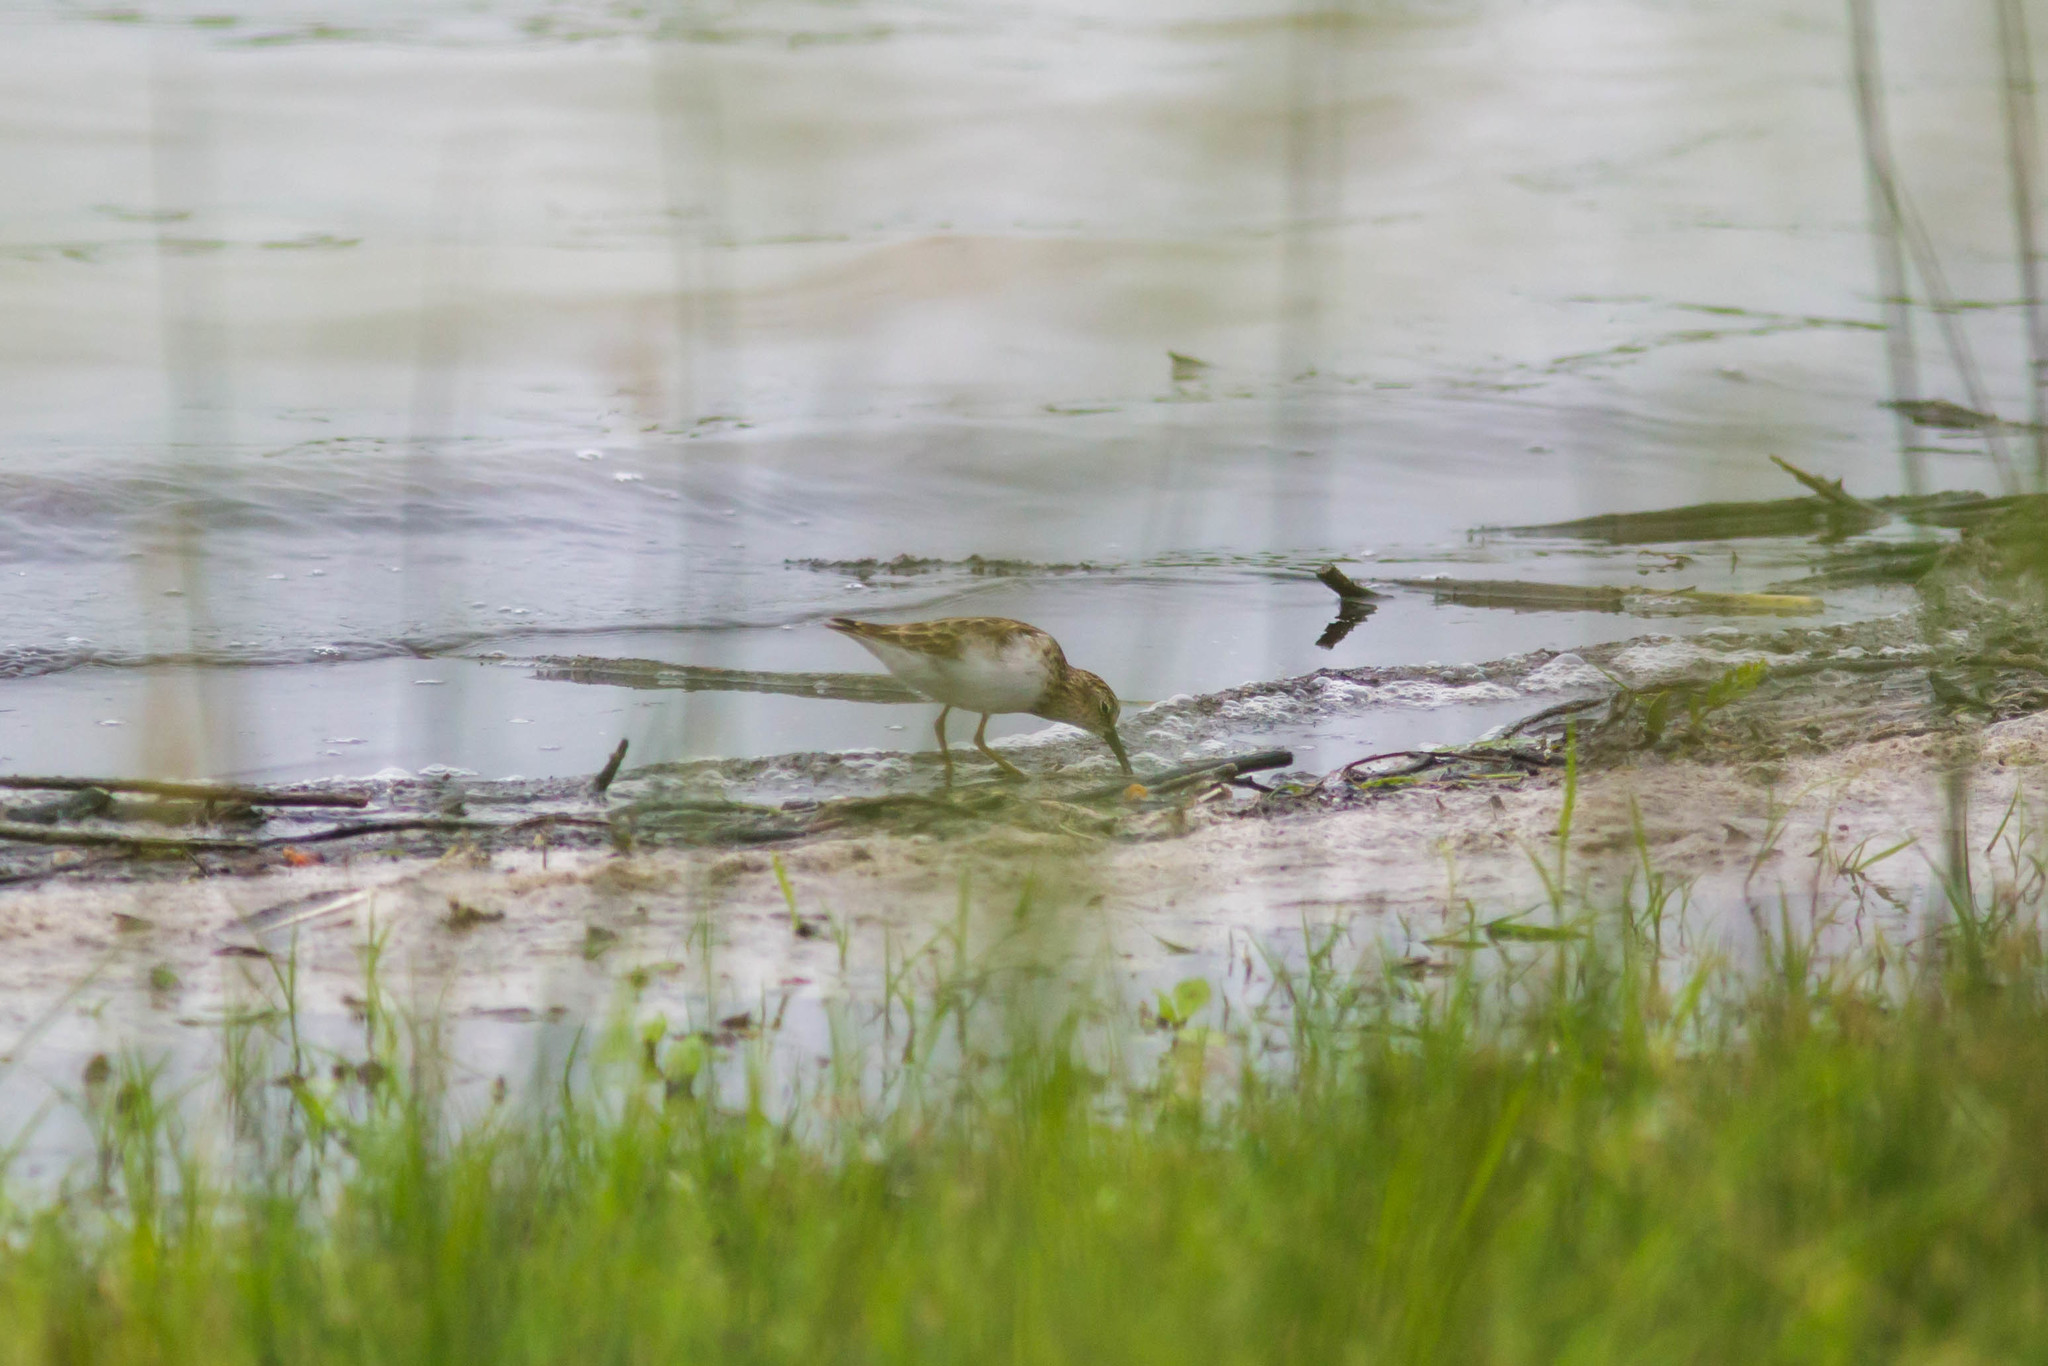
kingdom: Animalia
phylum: Chordata
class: Aves
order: Charadriiformes
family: Scolopacidae
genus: Calidris
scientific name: Calidris minutilla
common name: Least sandpiper
